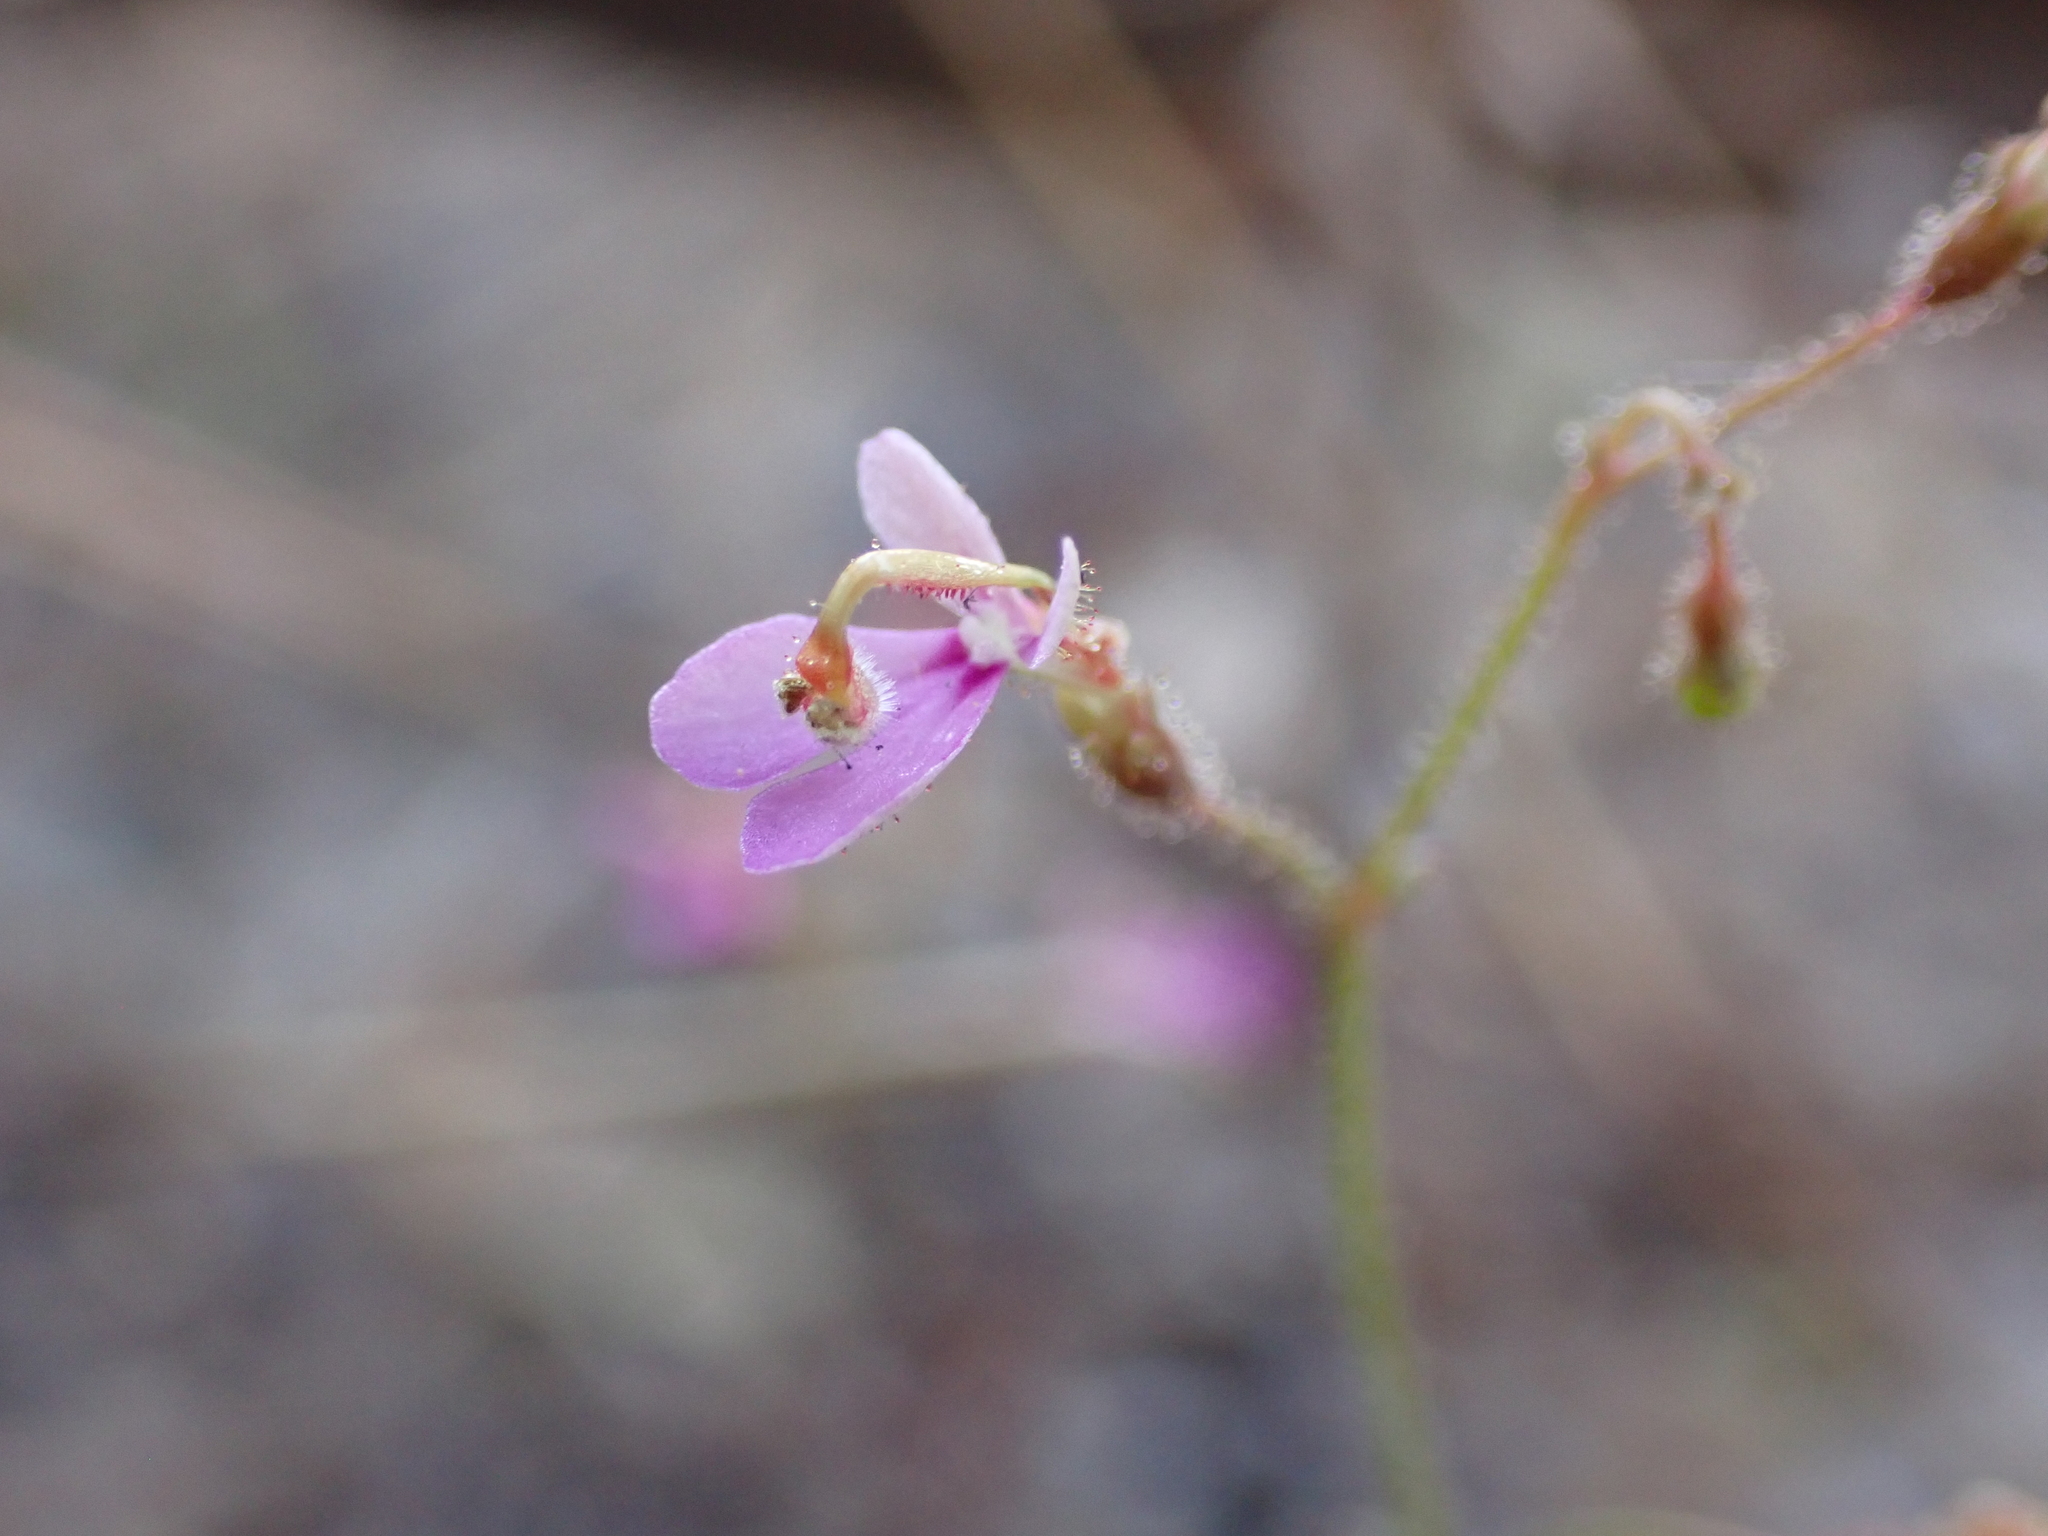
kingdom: Plantae
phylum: Tracheophyta
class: Magnoliopsida
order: Asterales
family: Stylidiaceae
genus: Stylidium
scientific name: Stylidium semipartitum
